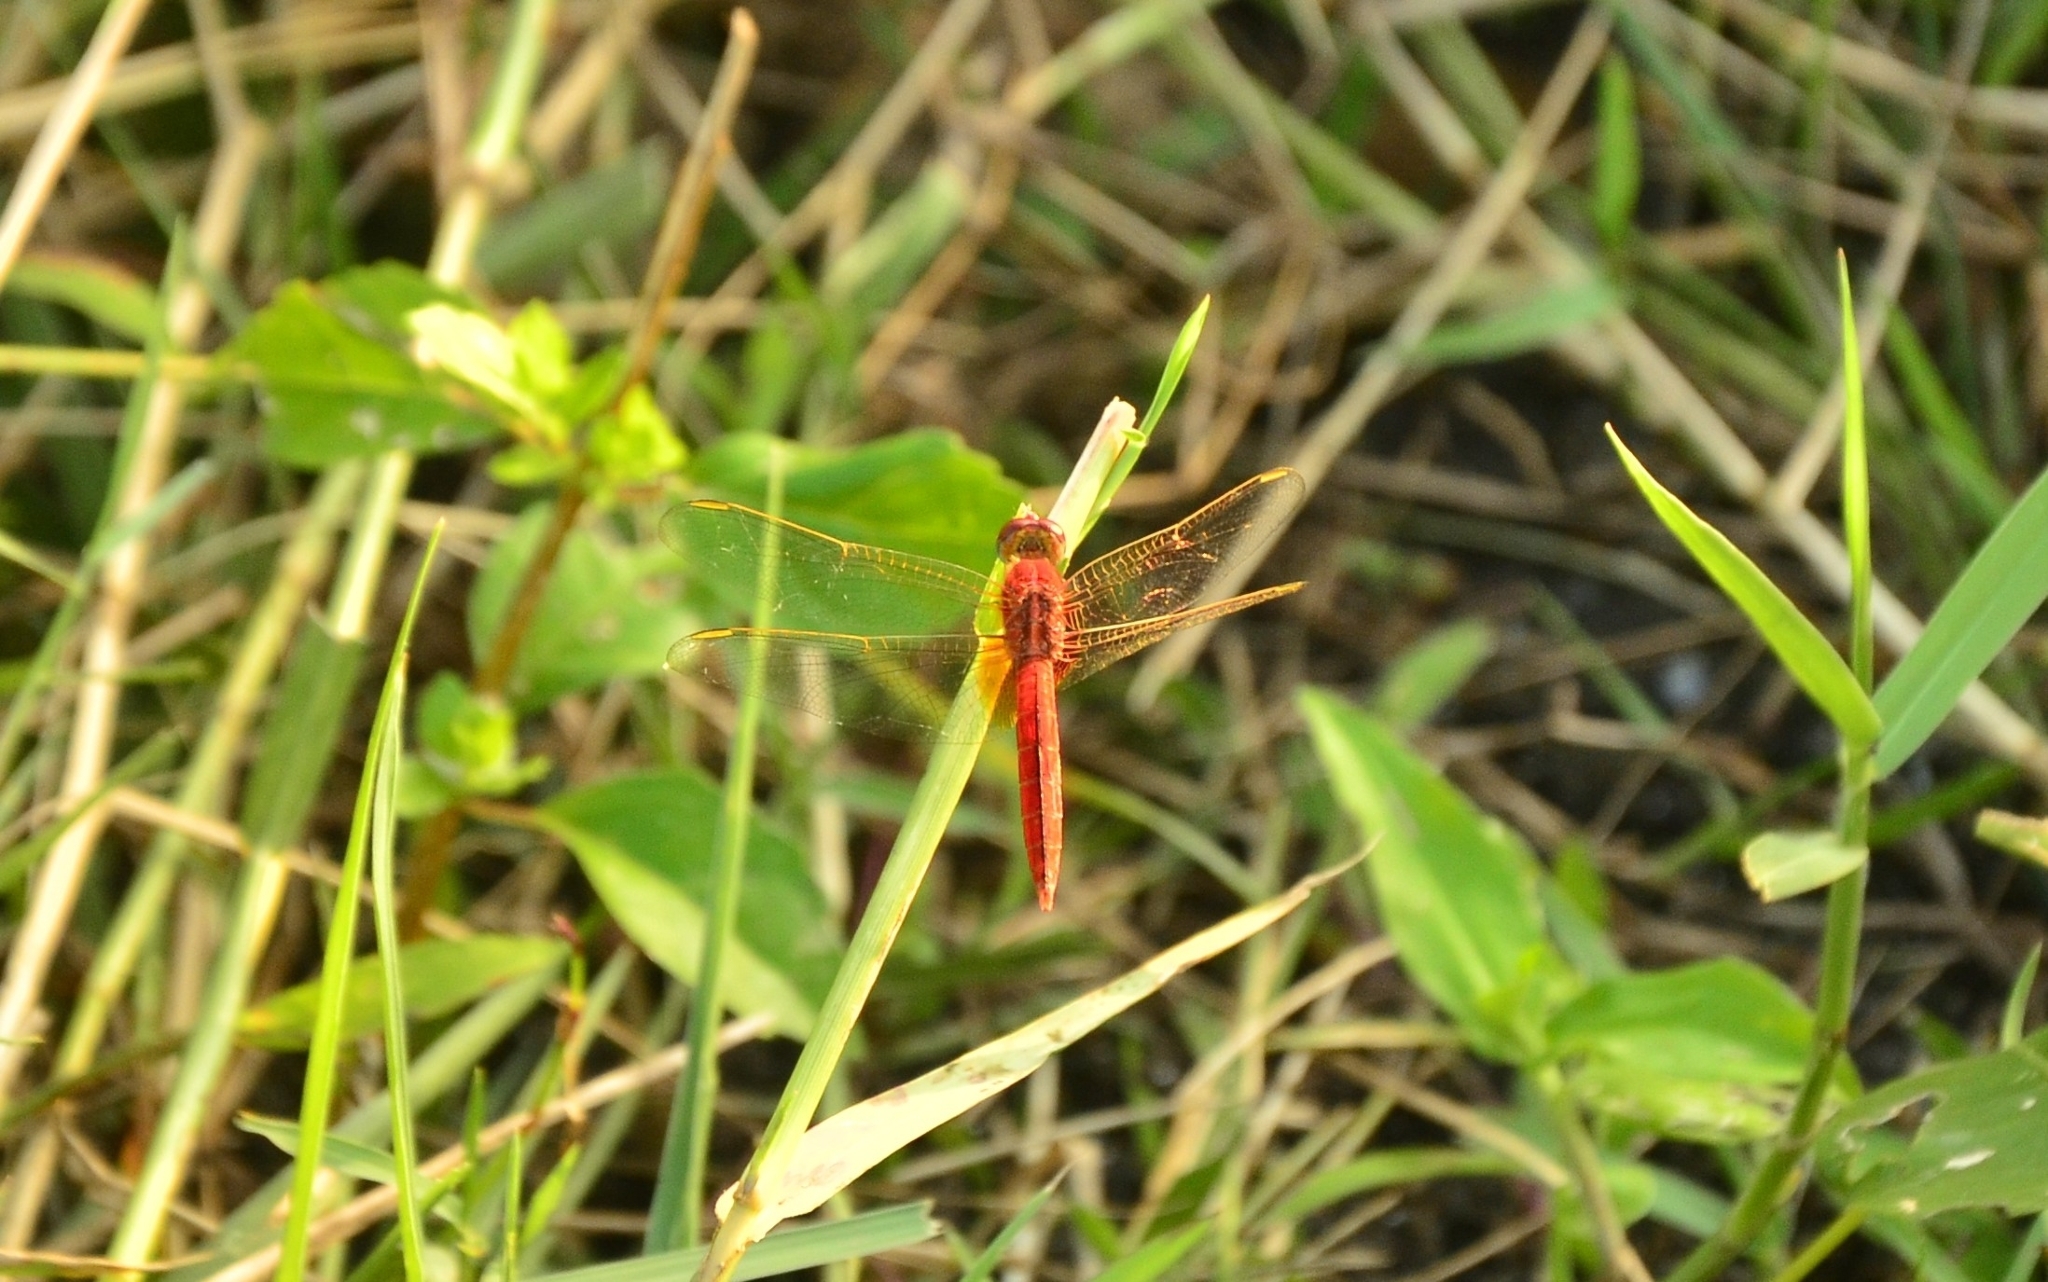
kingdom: Animalia
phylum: Arthropoda
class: Insecta
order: Odonata
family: Libellulidae
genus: Crocothemis
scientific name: Crocothemis servilia
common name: Scarlet skimmer
